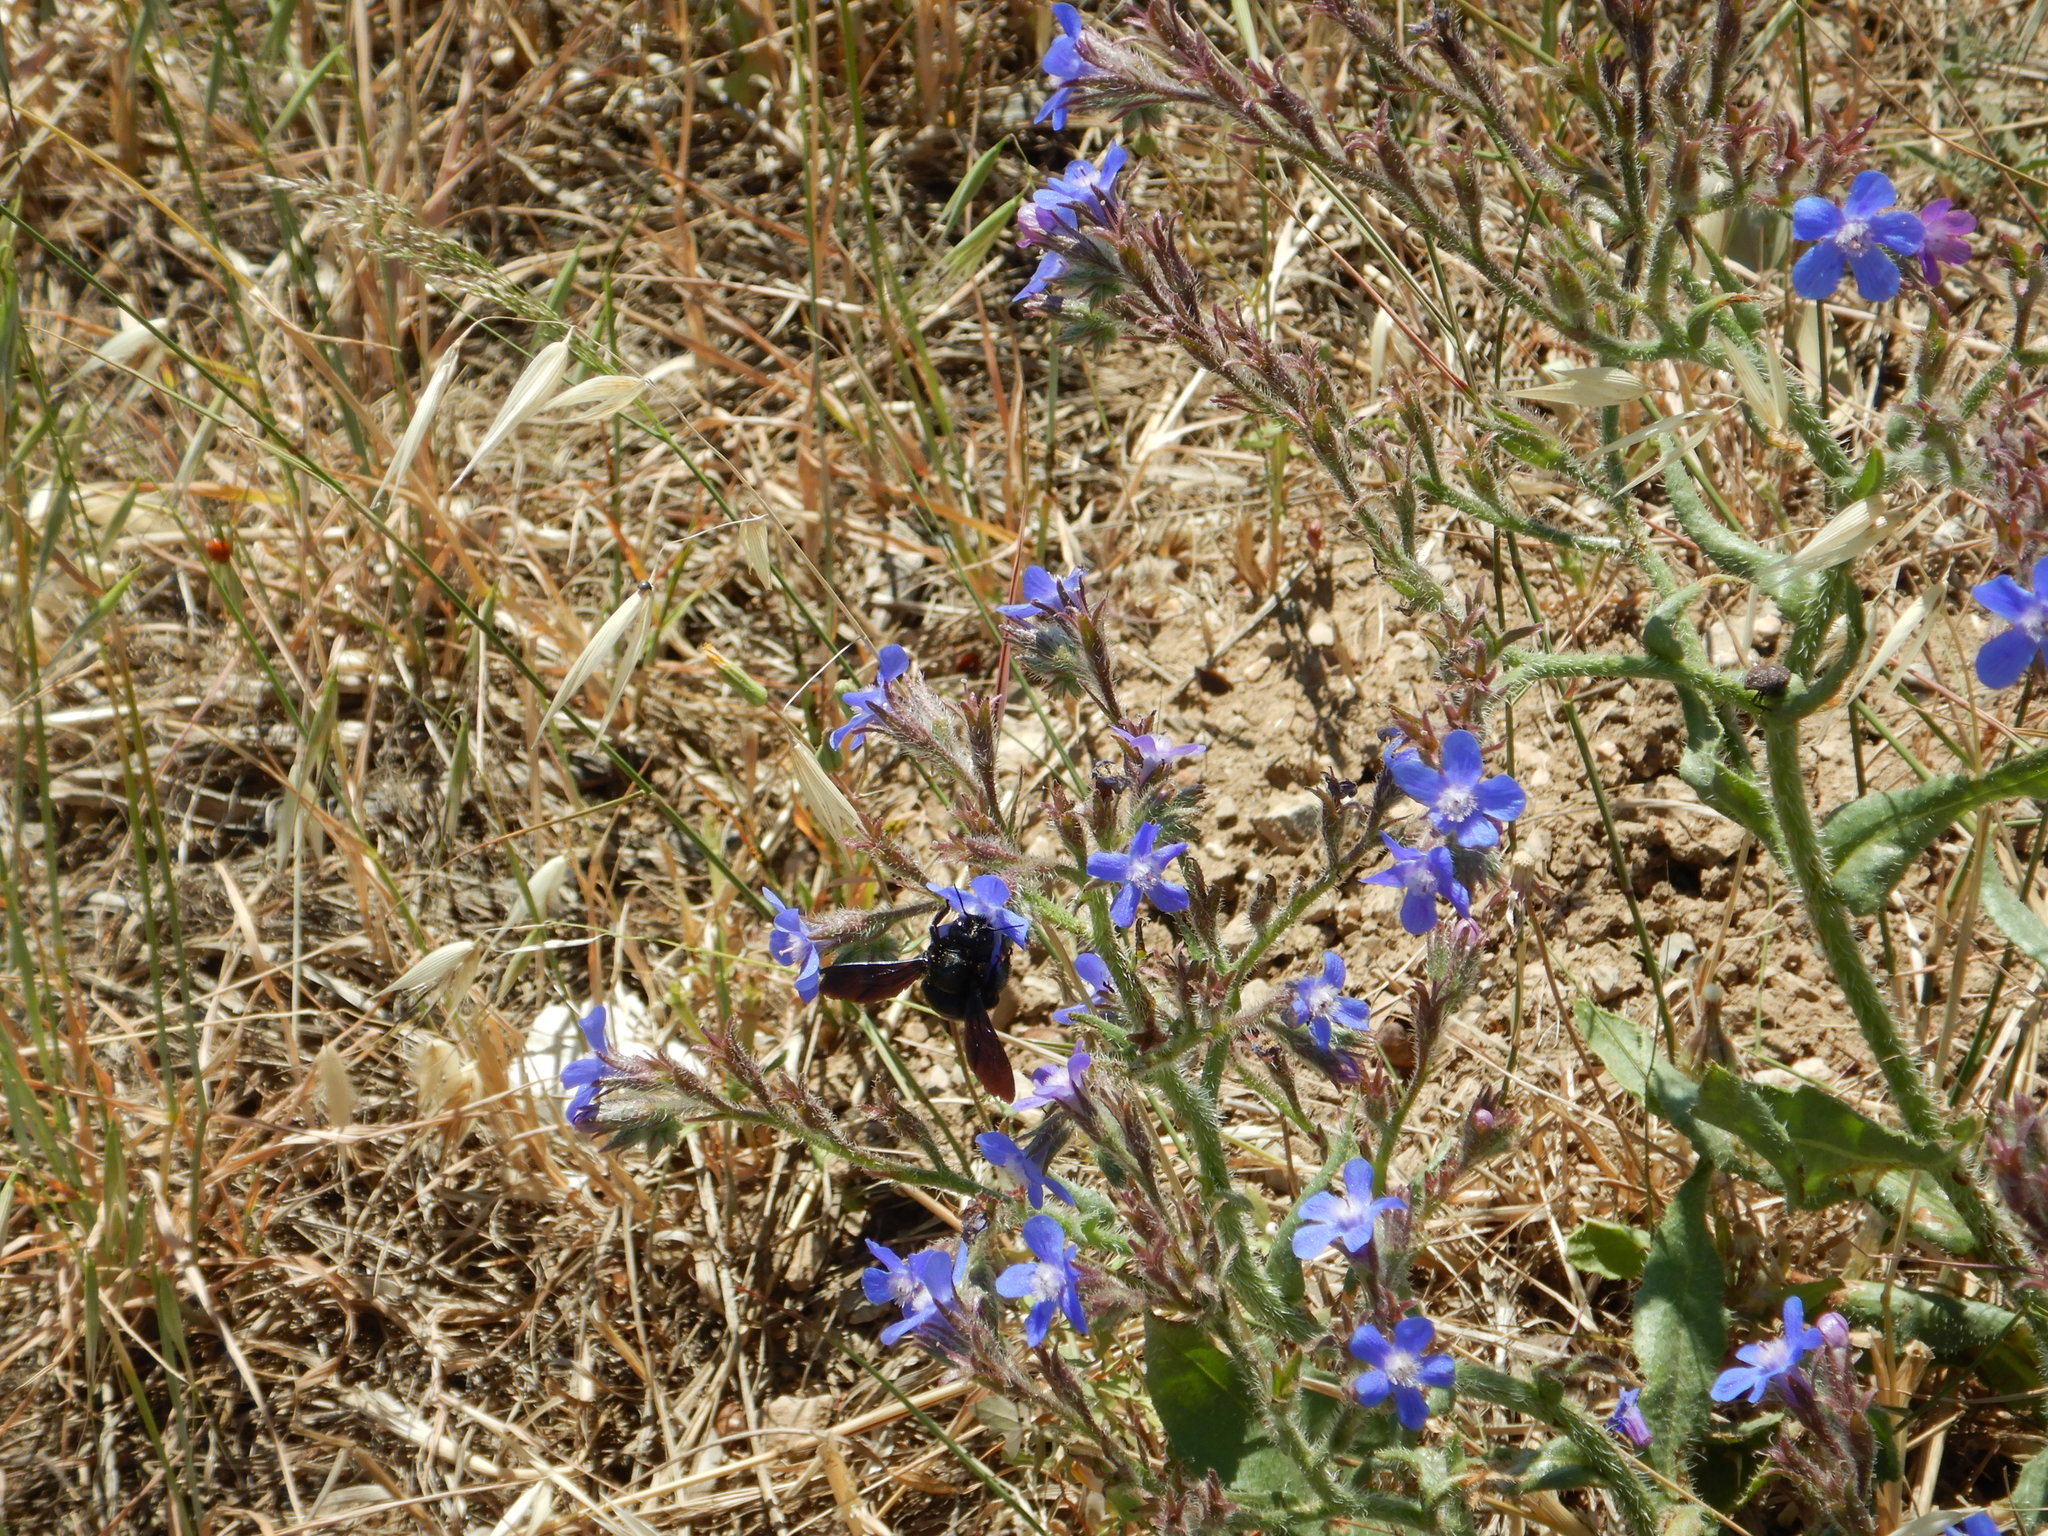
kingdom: Animalia
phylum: Arthropoda
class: Insecta
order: Hymenoptera
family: Apidae
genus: Xylocopa
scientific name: Xylocopa
